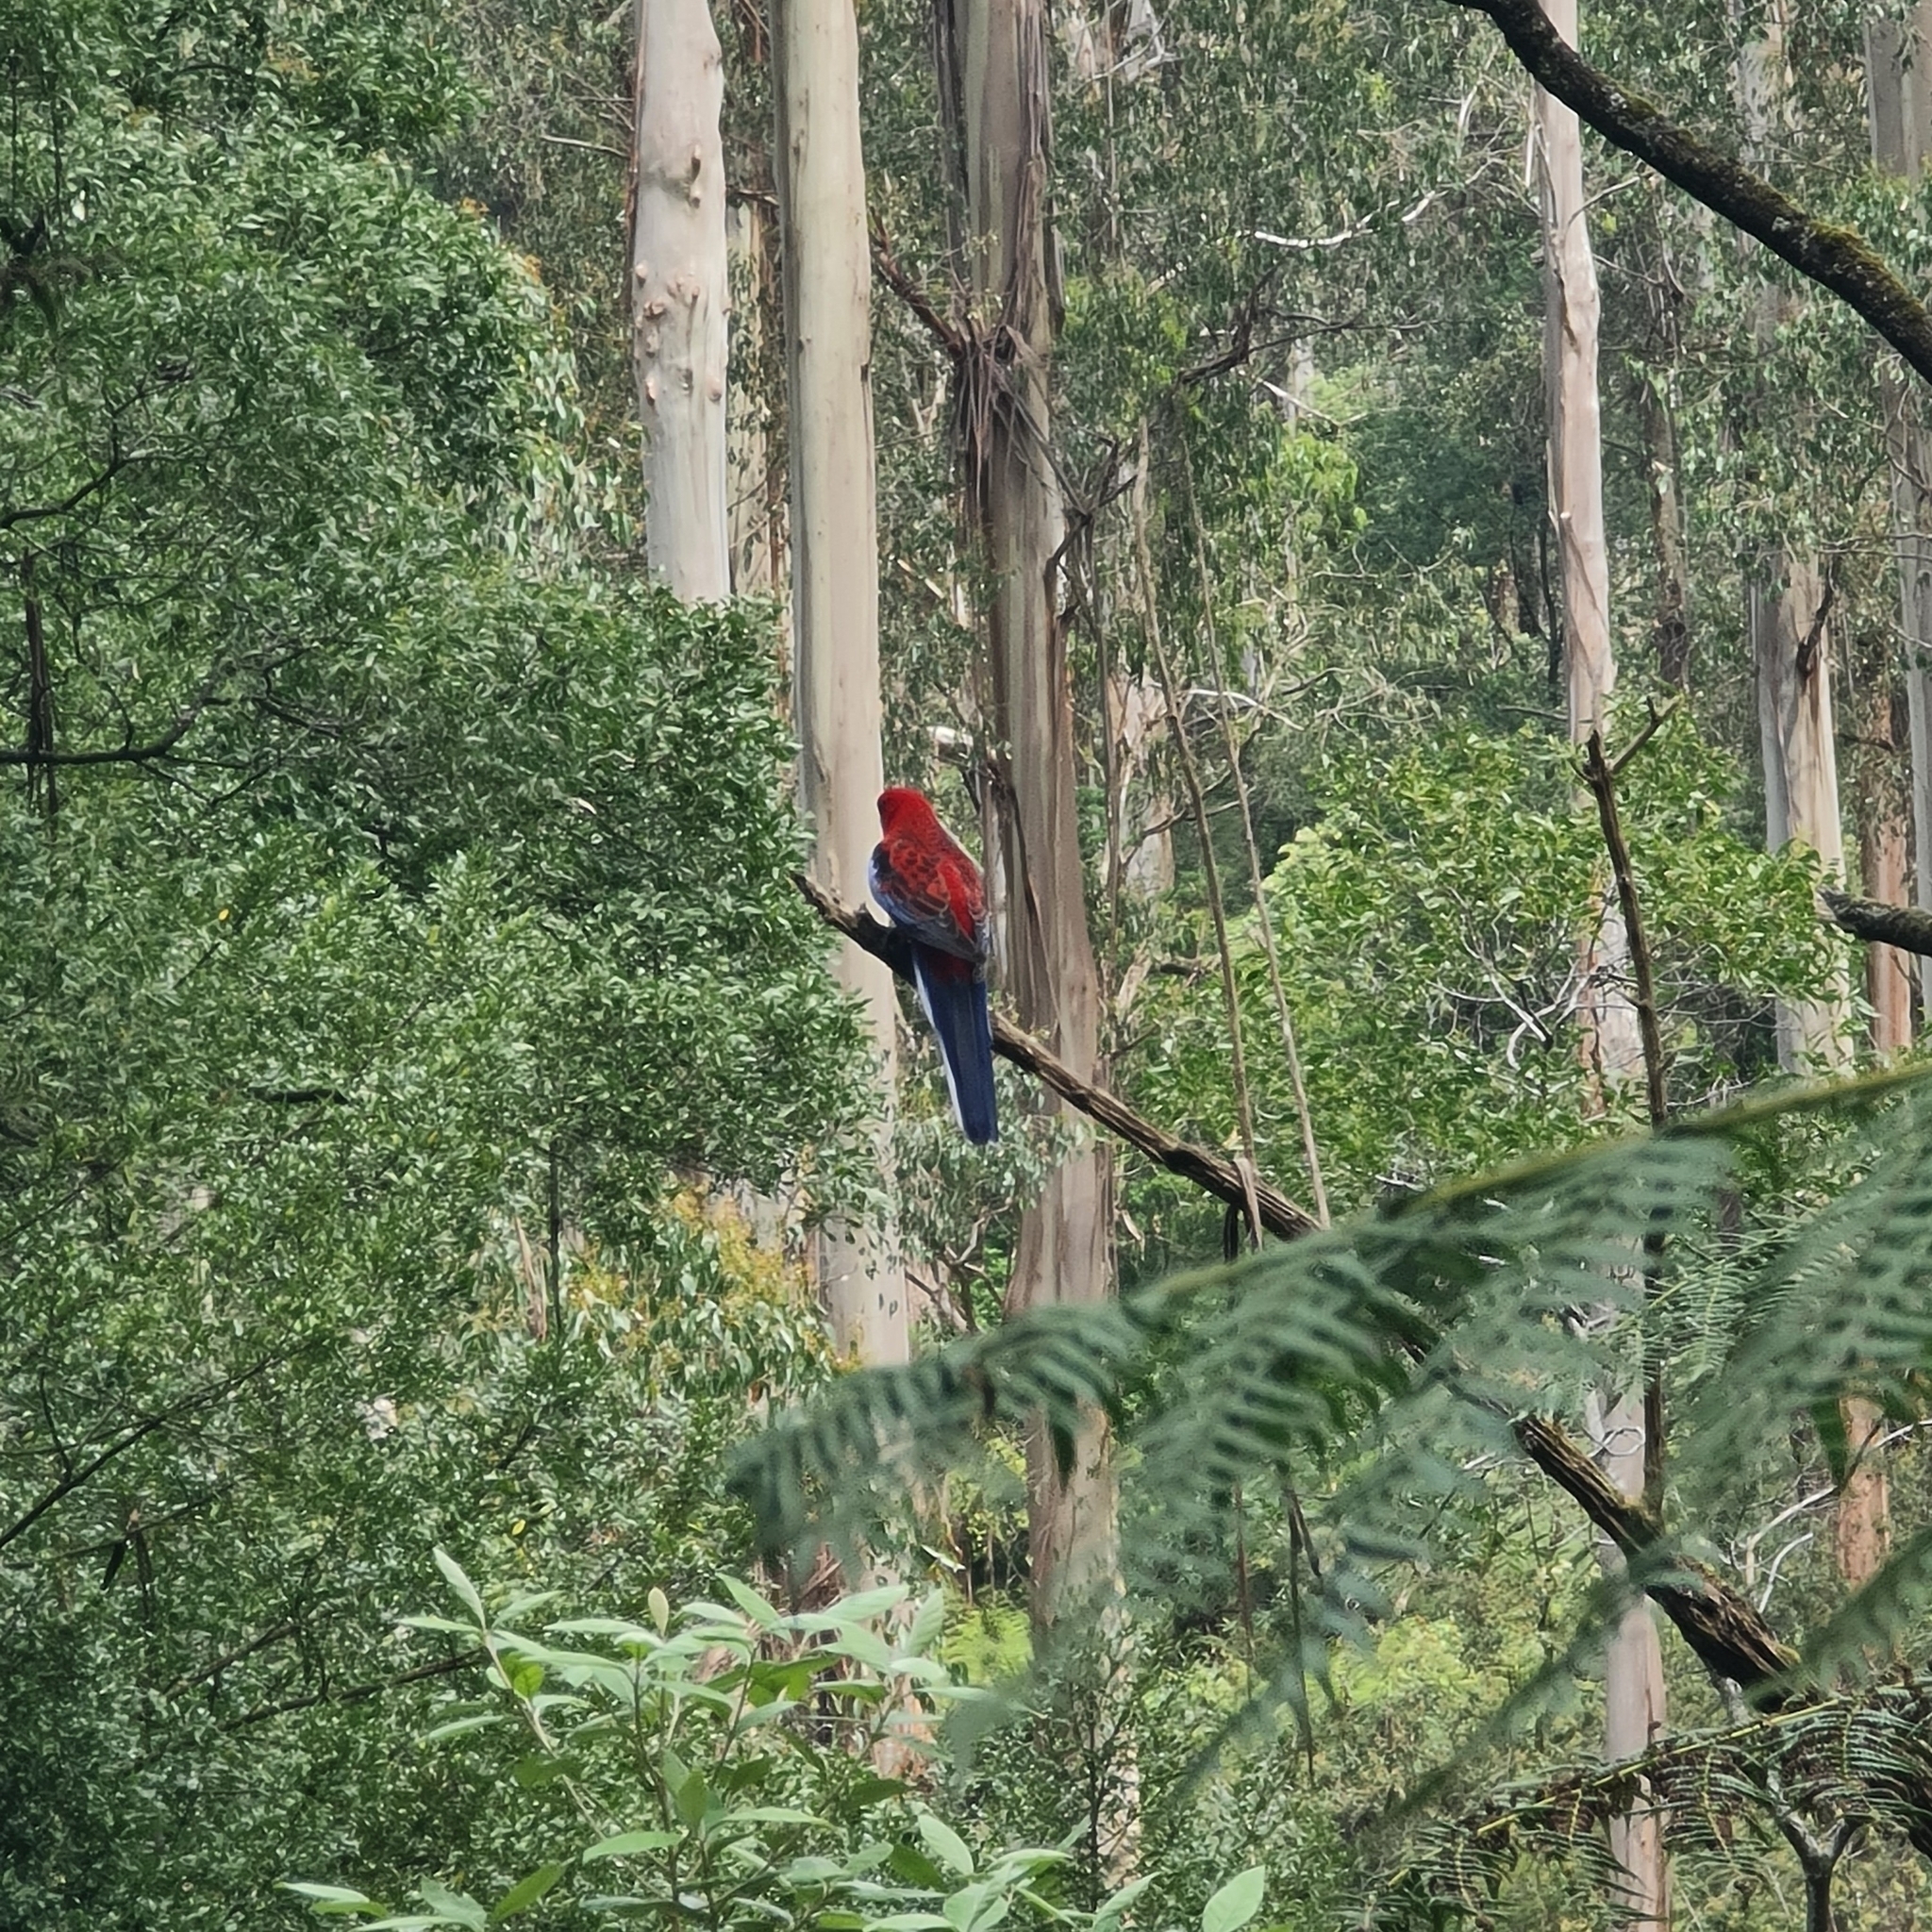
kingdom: Animalia
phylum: Chordata
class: Aves
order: Psittaciformes
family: Psittacidae
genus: Platycercus
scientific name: Platycercus elegans
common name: Crimson rosella
